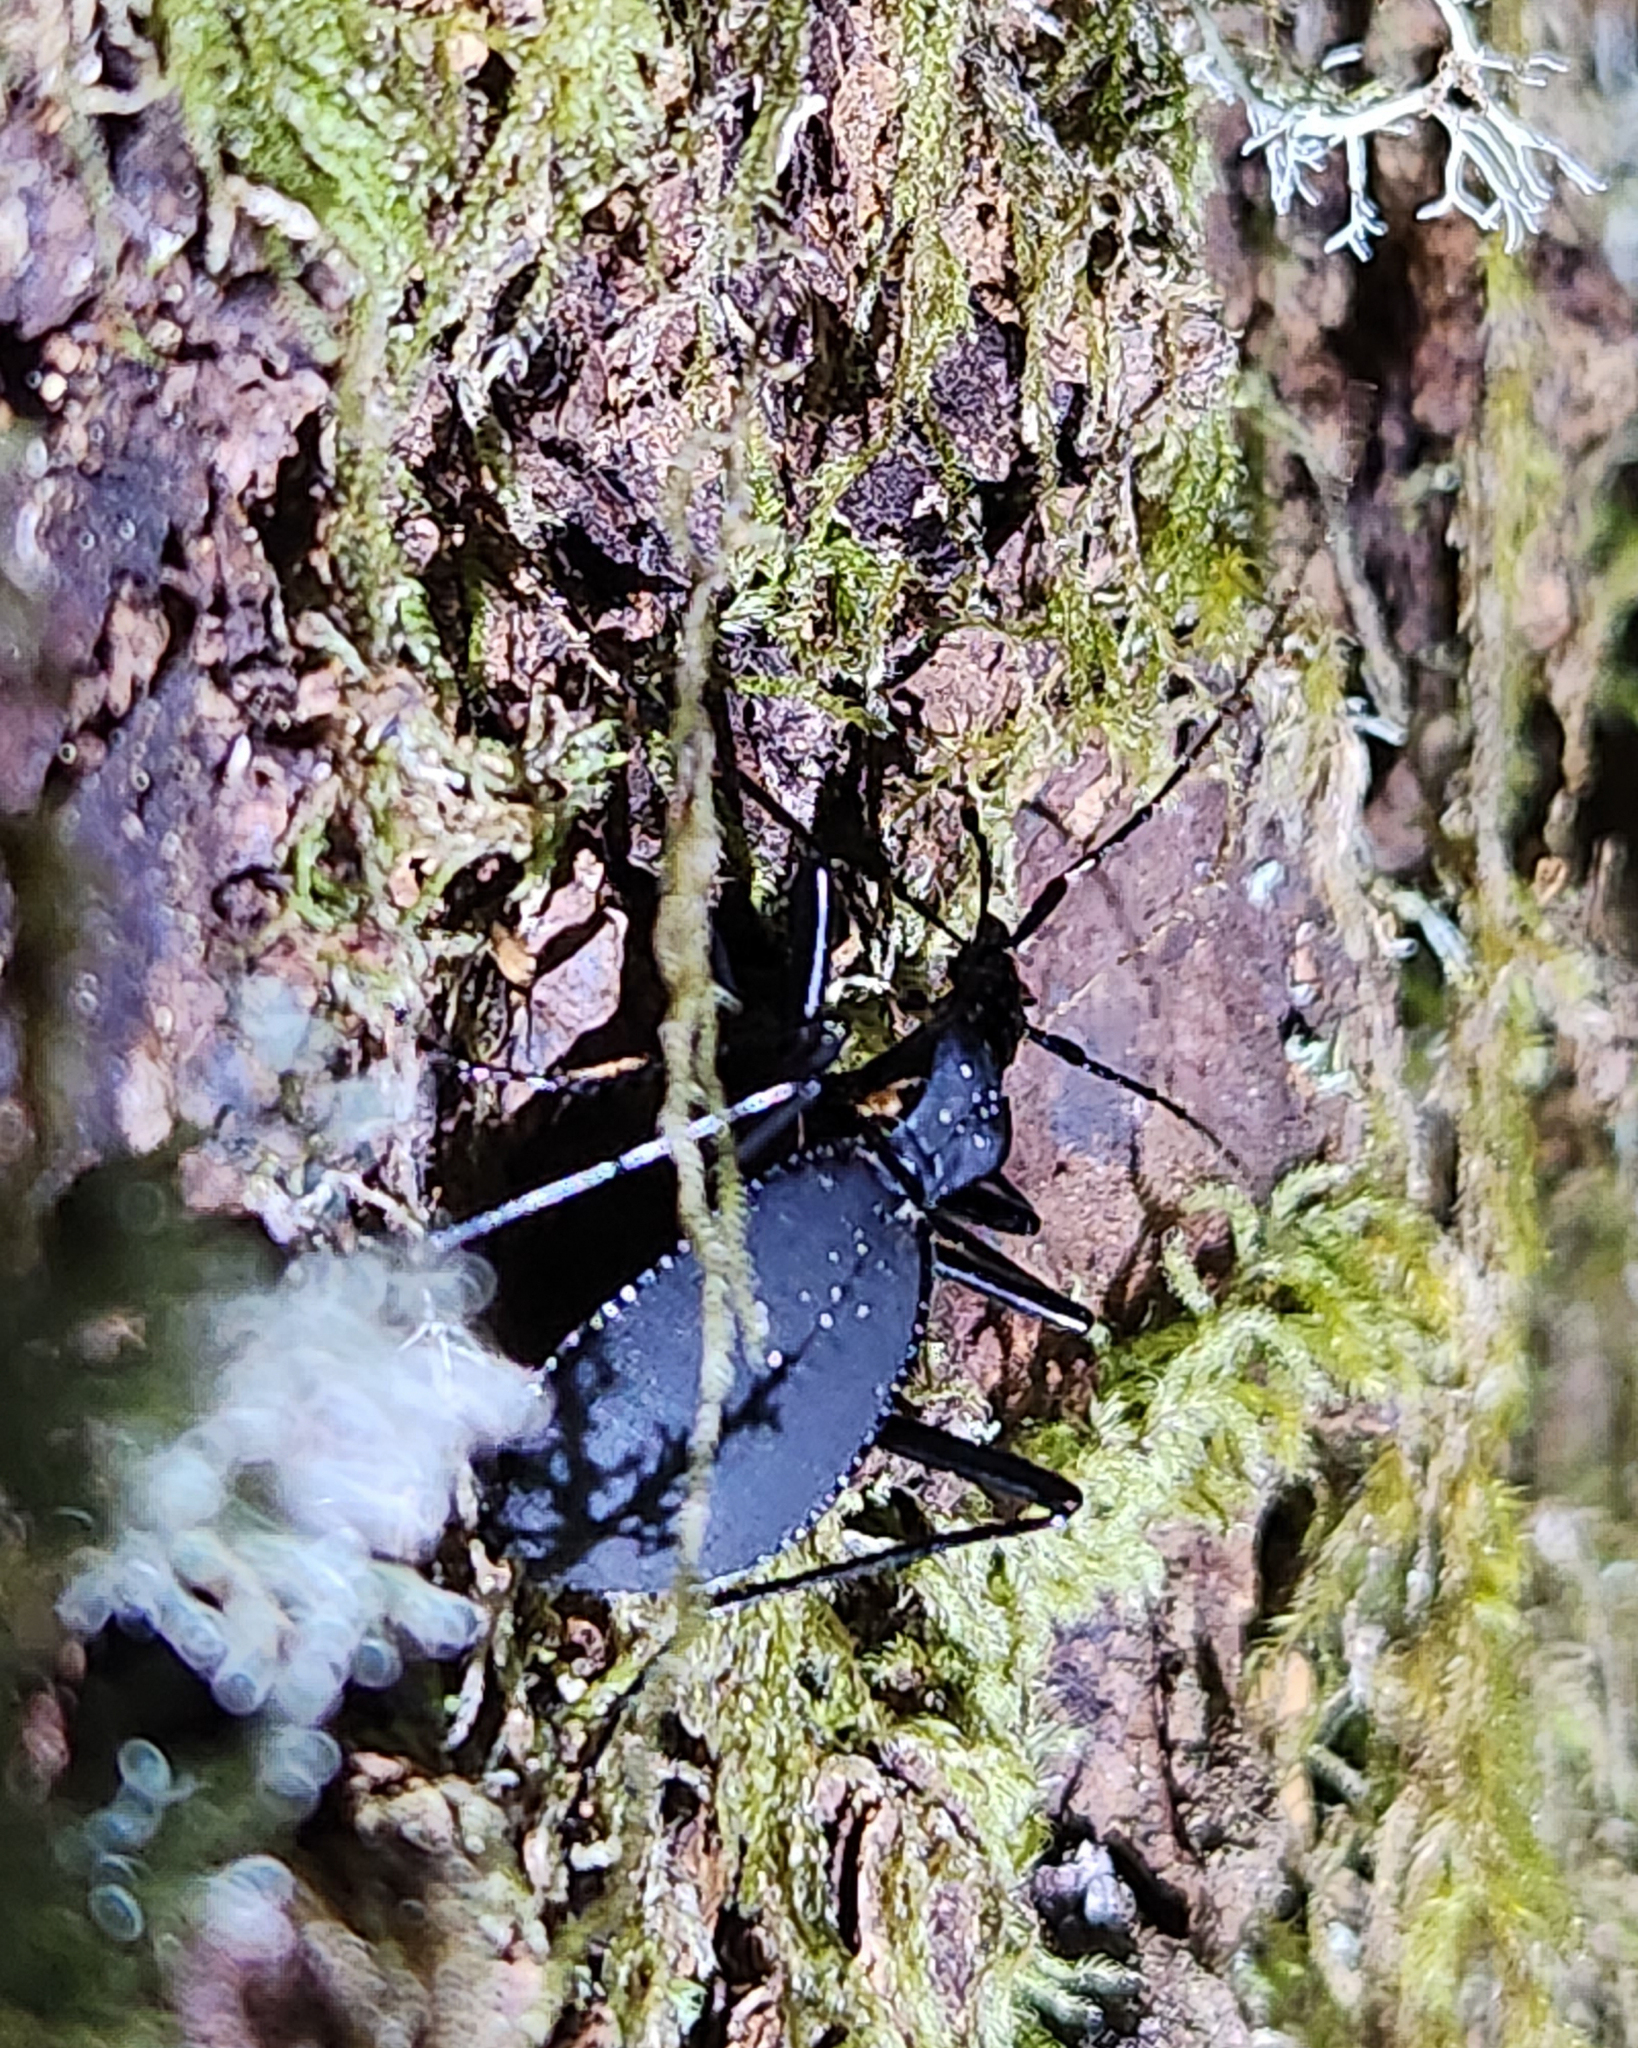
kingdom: Animalia
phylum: Arthropoda
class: Insecta
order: Coleoptera
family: Carabidae
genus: Scaphinotus
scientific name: Scaphinotus angusticollis
